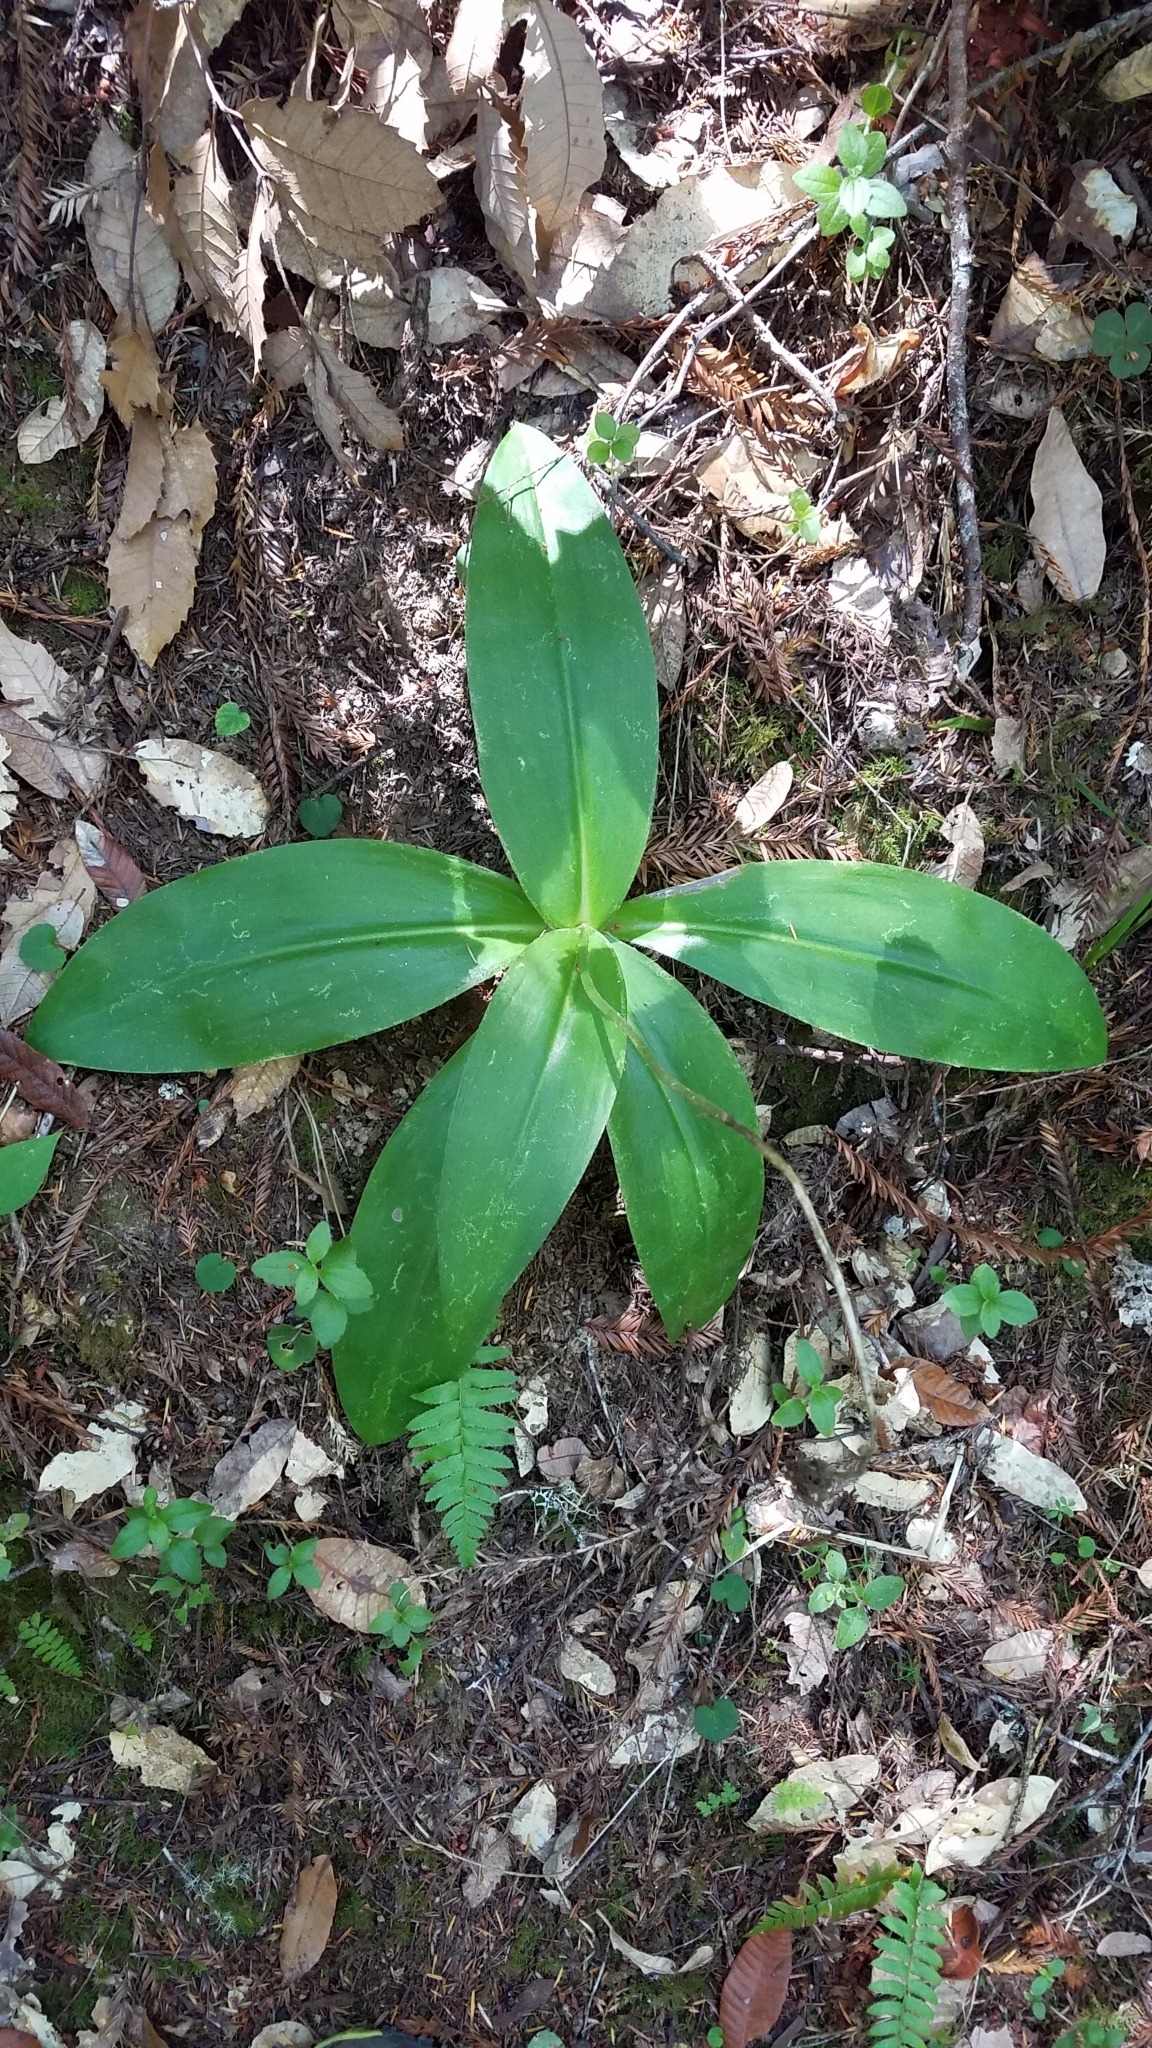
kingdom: Plantae
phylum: Tracheophyta
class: Liliopsida
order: Liliales
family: Liliaceae
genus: Clintonia
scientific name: Clintonia andrewsiana
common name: Red clintonia
